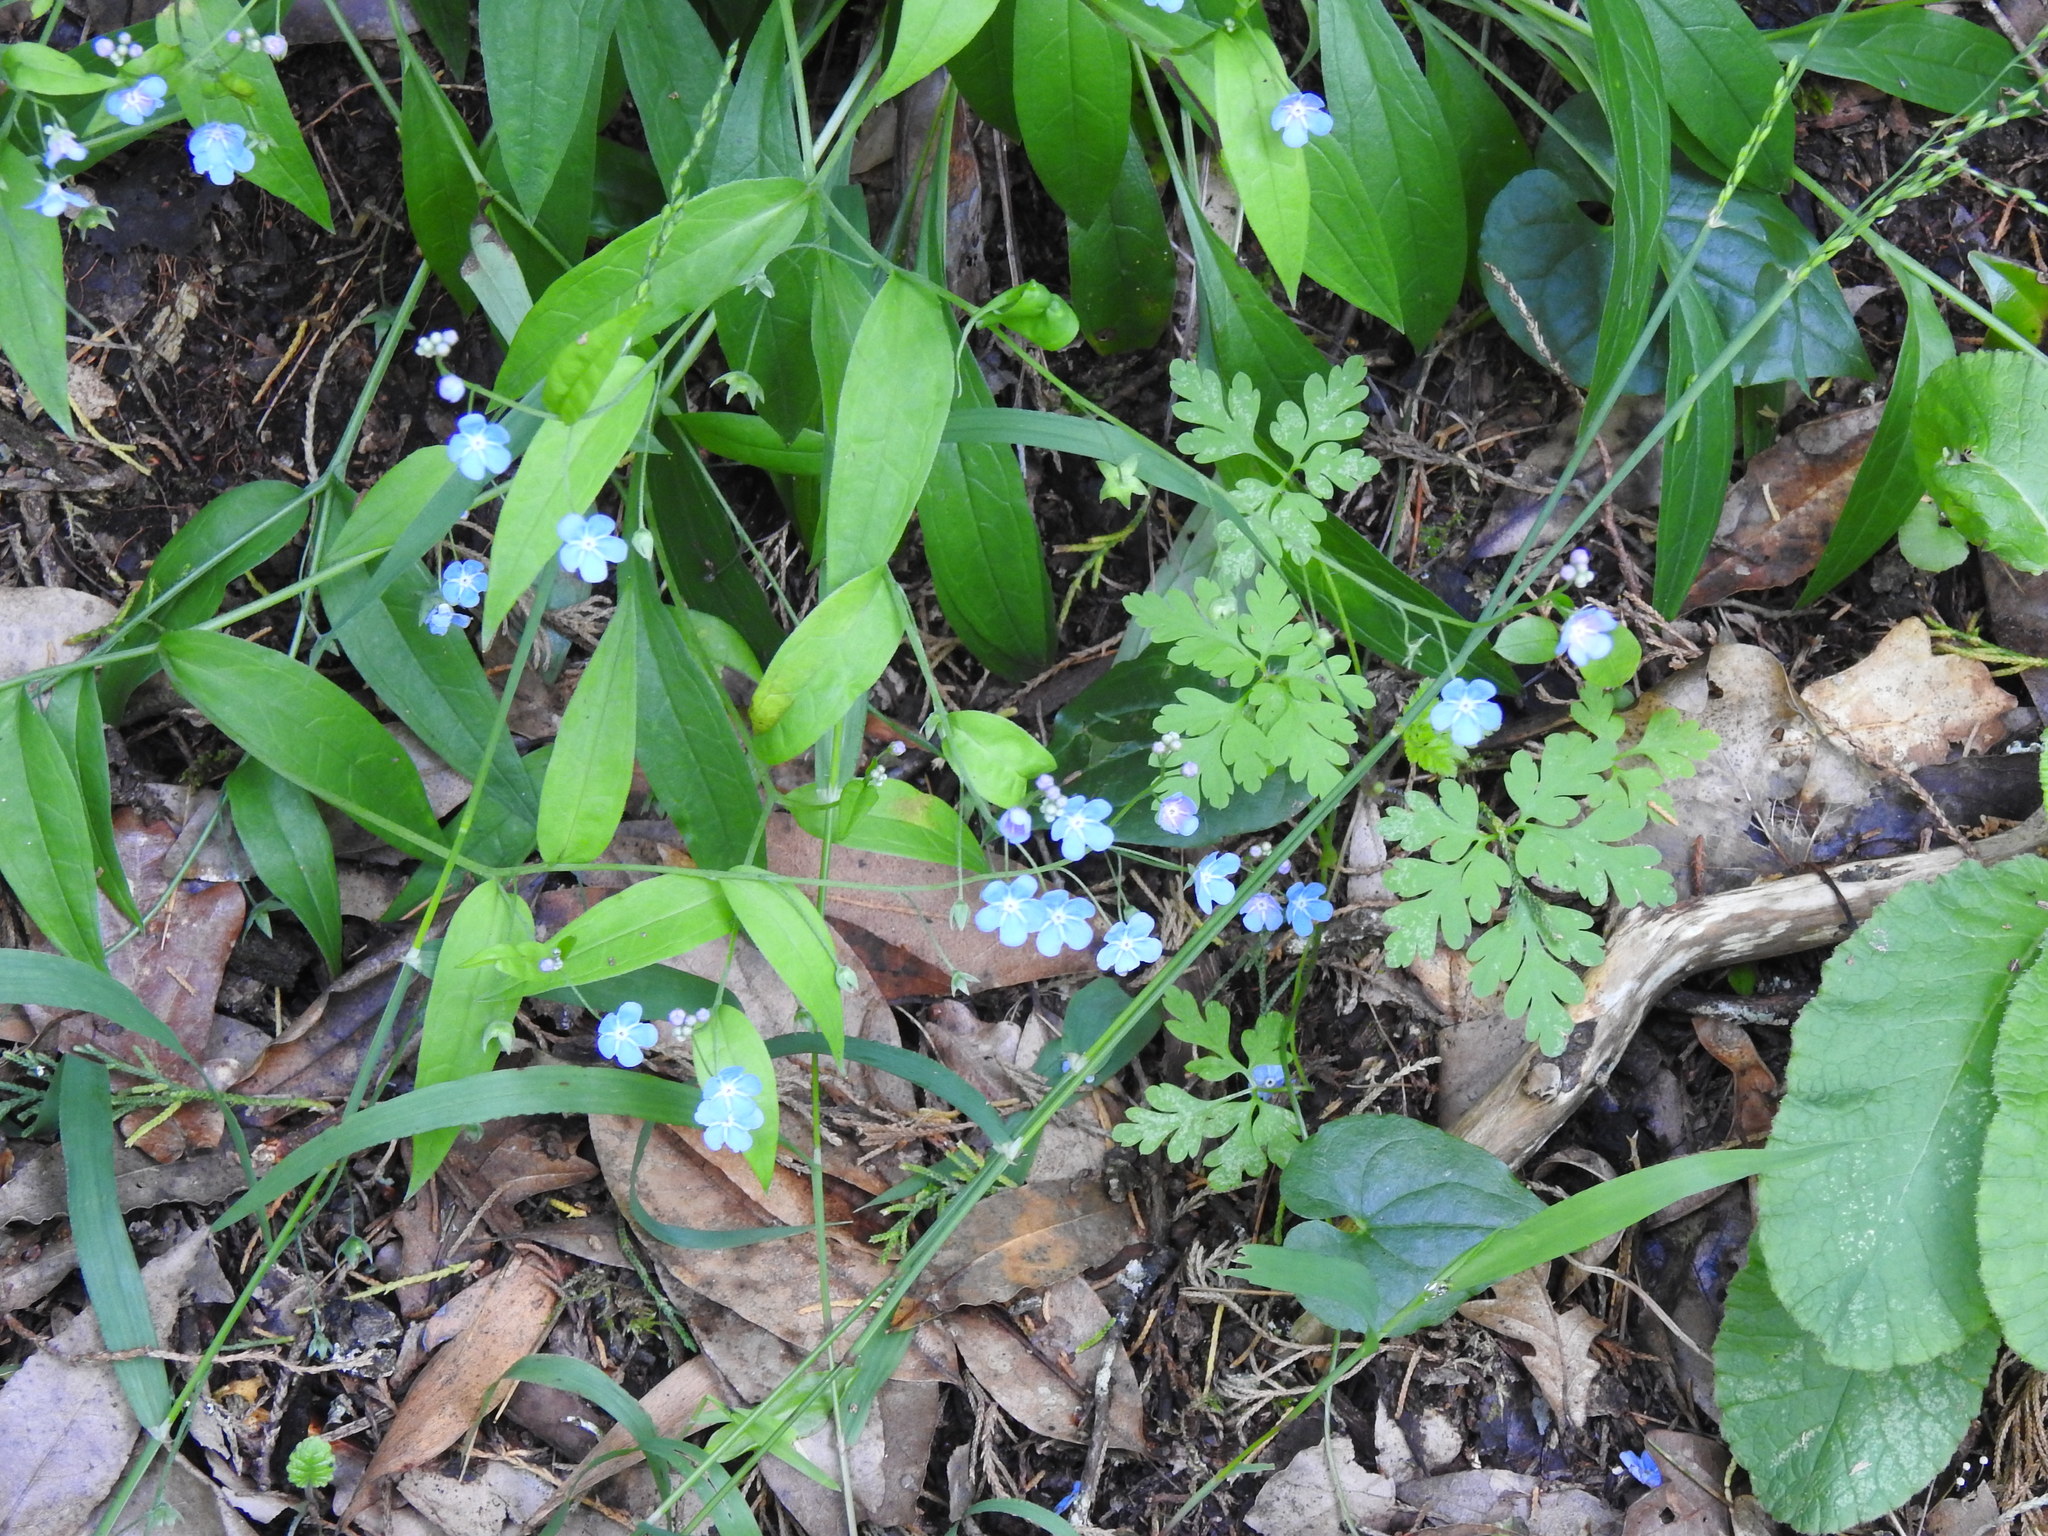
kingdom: Plantae
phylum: Tracheophyta
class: Magnoliopsida
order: Boraginales
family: Boraginaceae
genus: Omphalodes
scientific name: Omphalodes nitida
